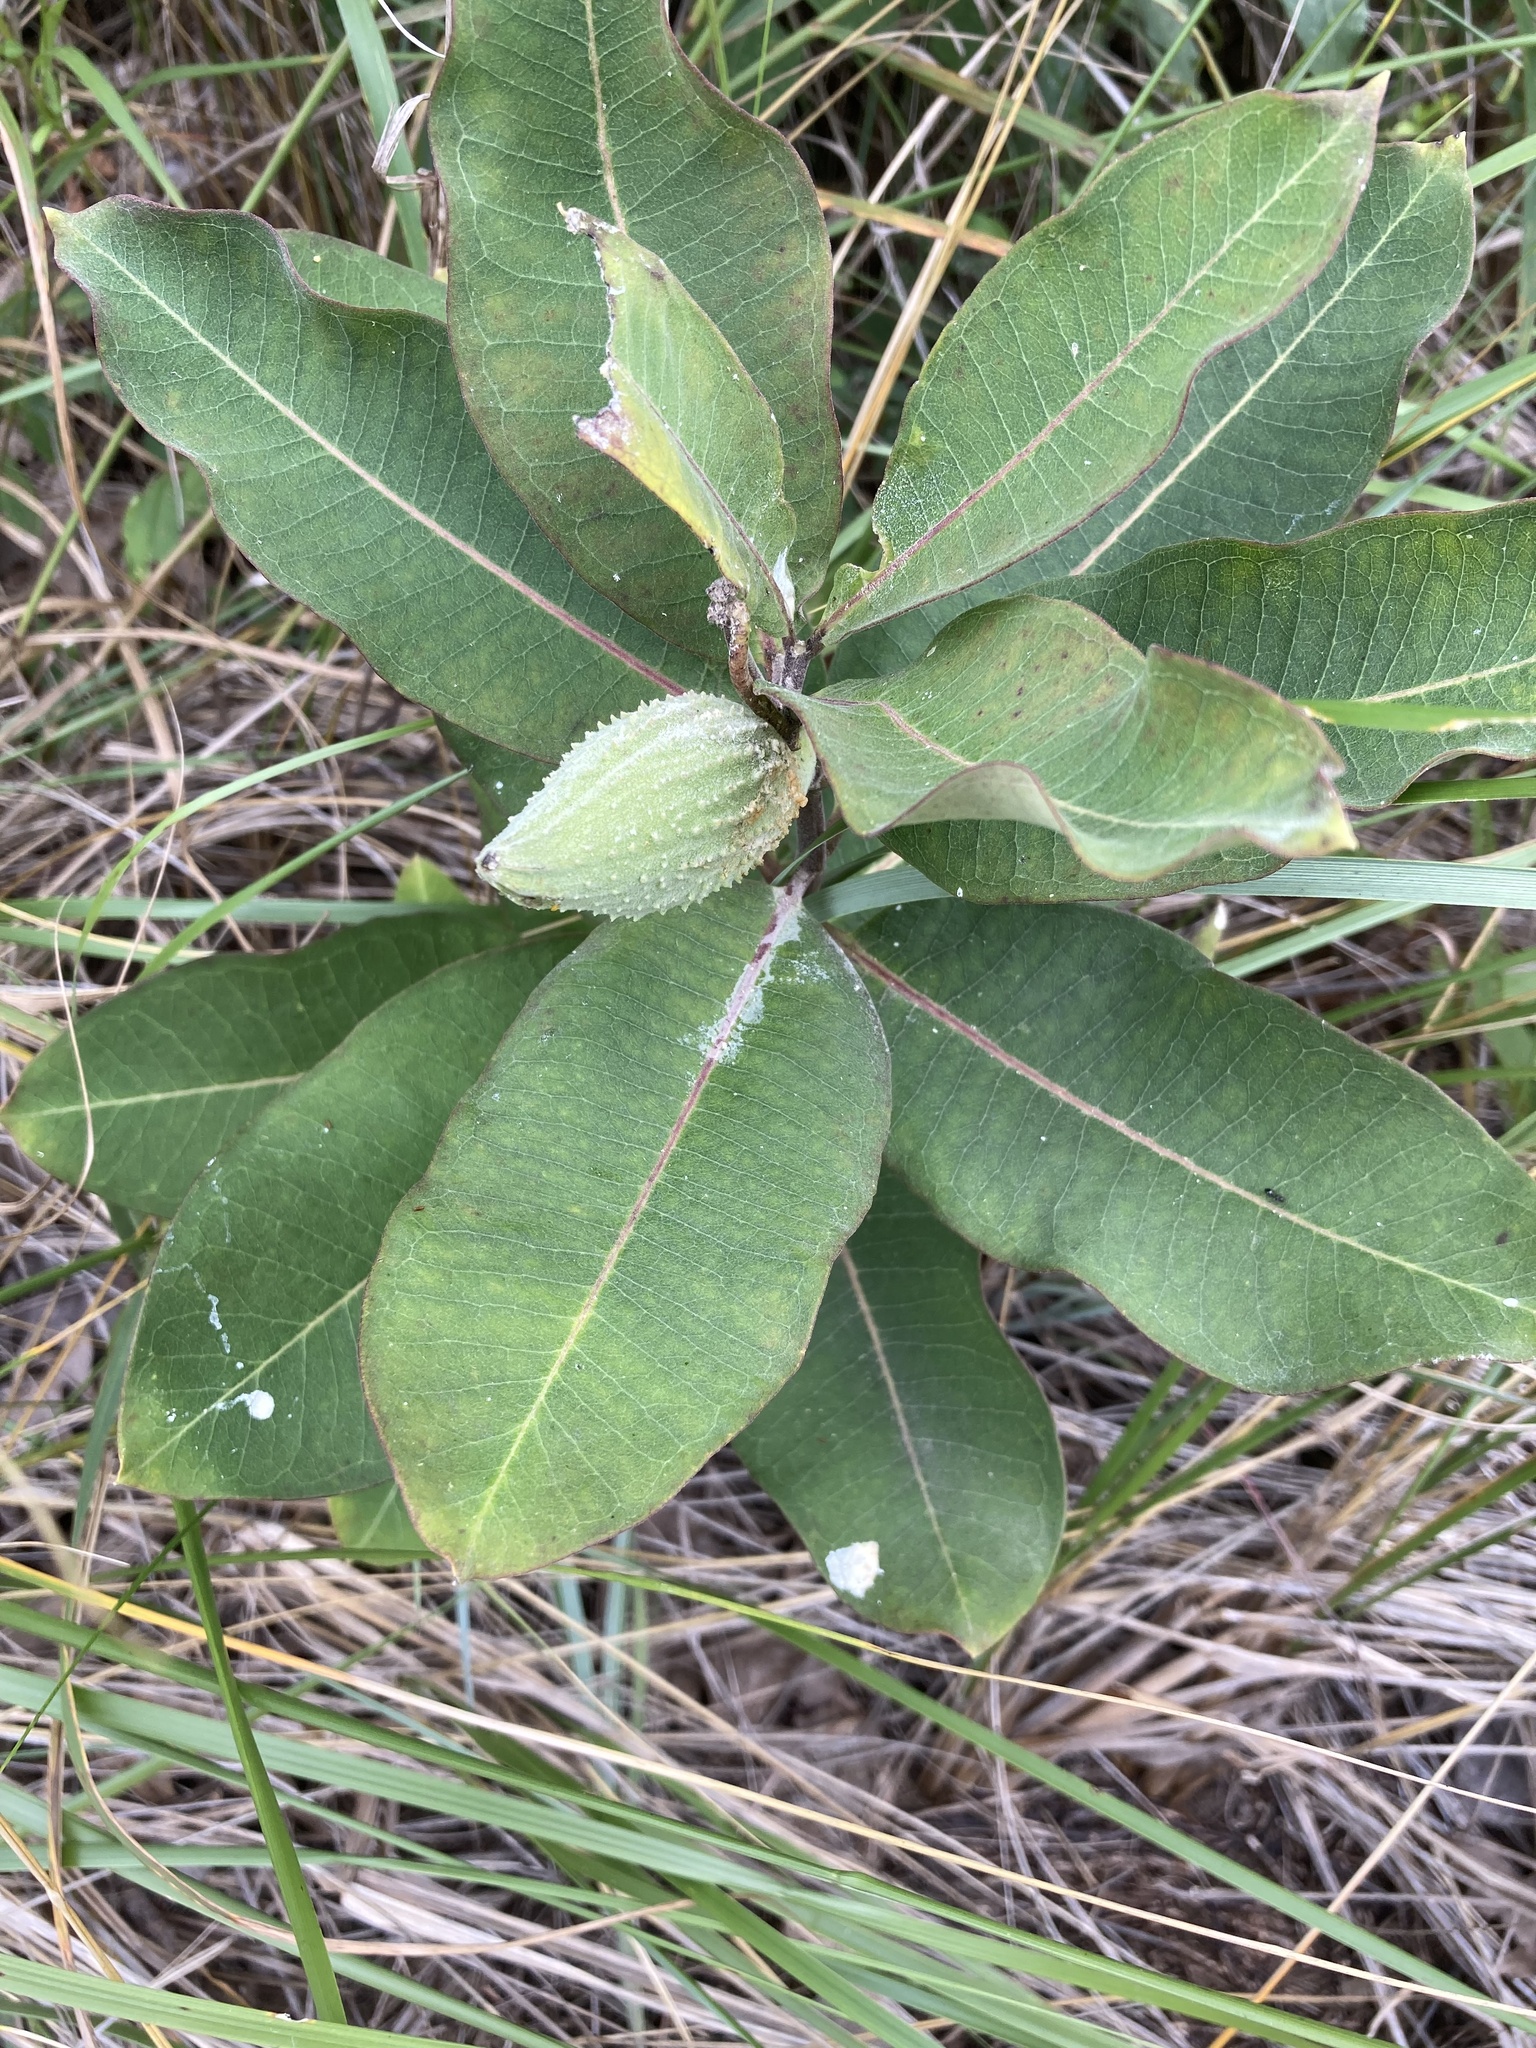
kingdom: Plantae
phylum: Tracheophyta
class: Magnoliopsida
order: Gentianales
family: Apocynaceae
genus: Asclepias
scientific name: Asclepias syriaca
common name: Common milkweed
